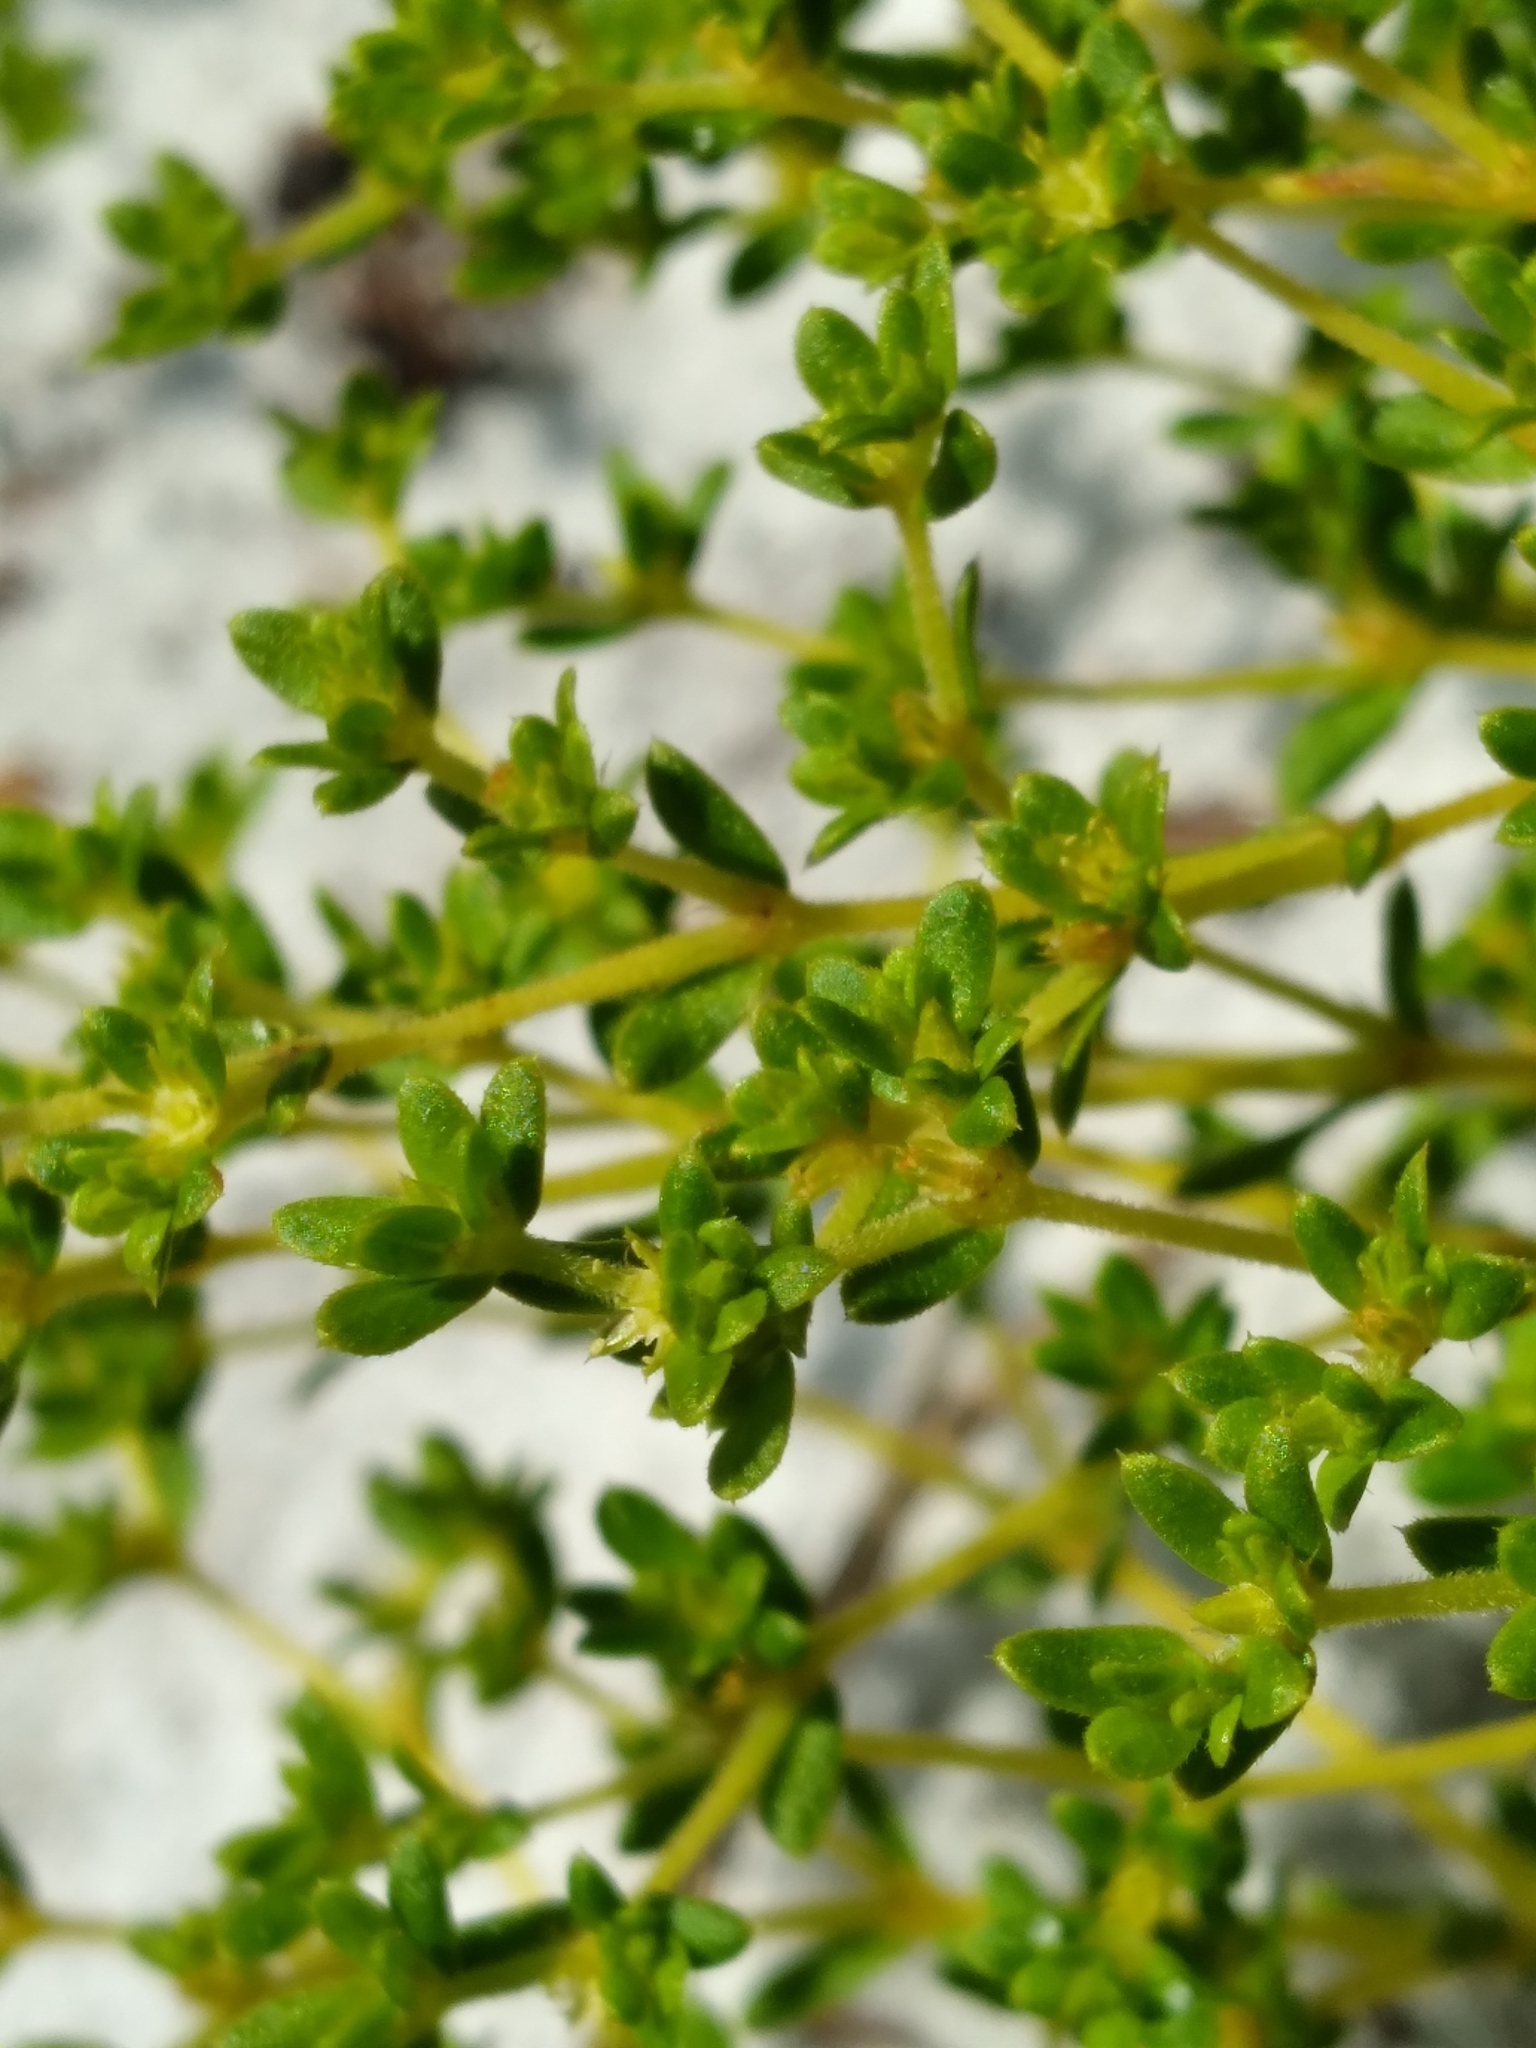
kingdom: Plantae
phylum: Tracheophyta
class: Magnoliopsida
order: Caryophyllales
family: Caryophyllaceae
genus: Paronychia
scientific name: Paronychia herniarioides
